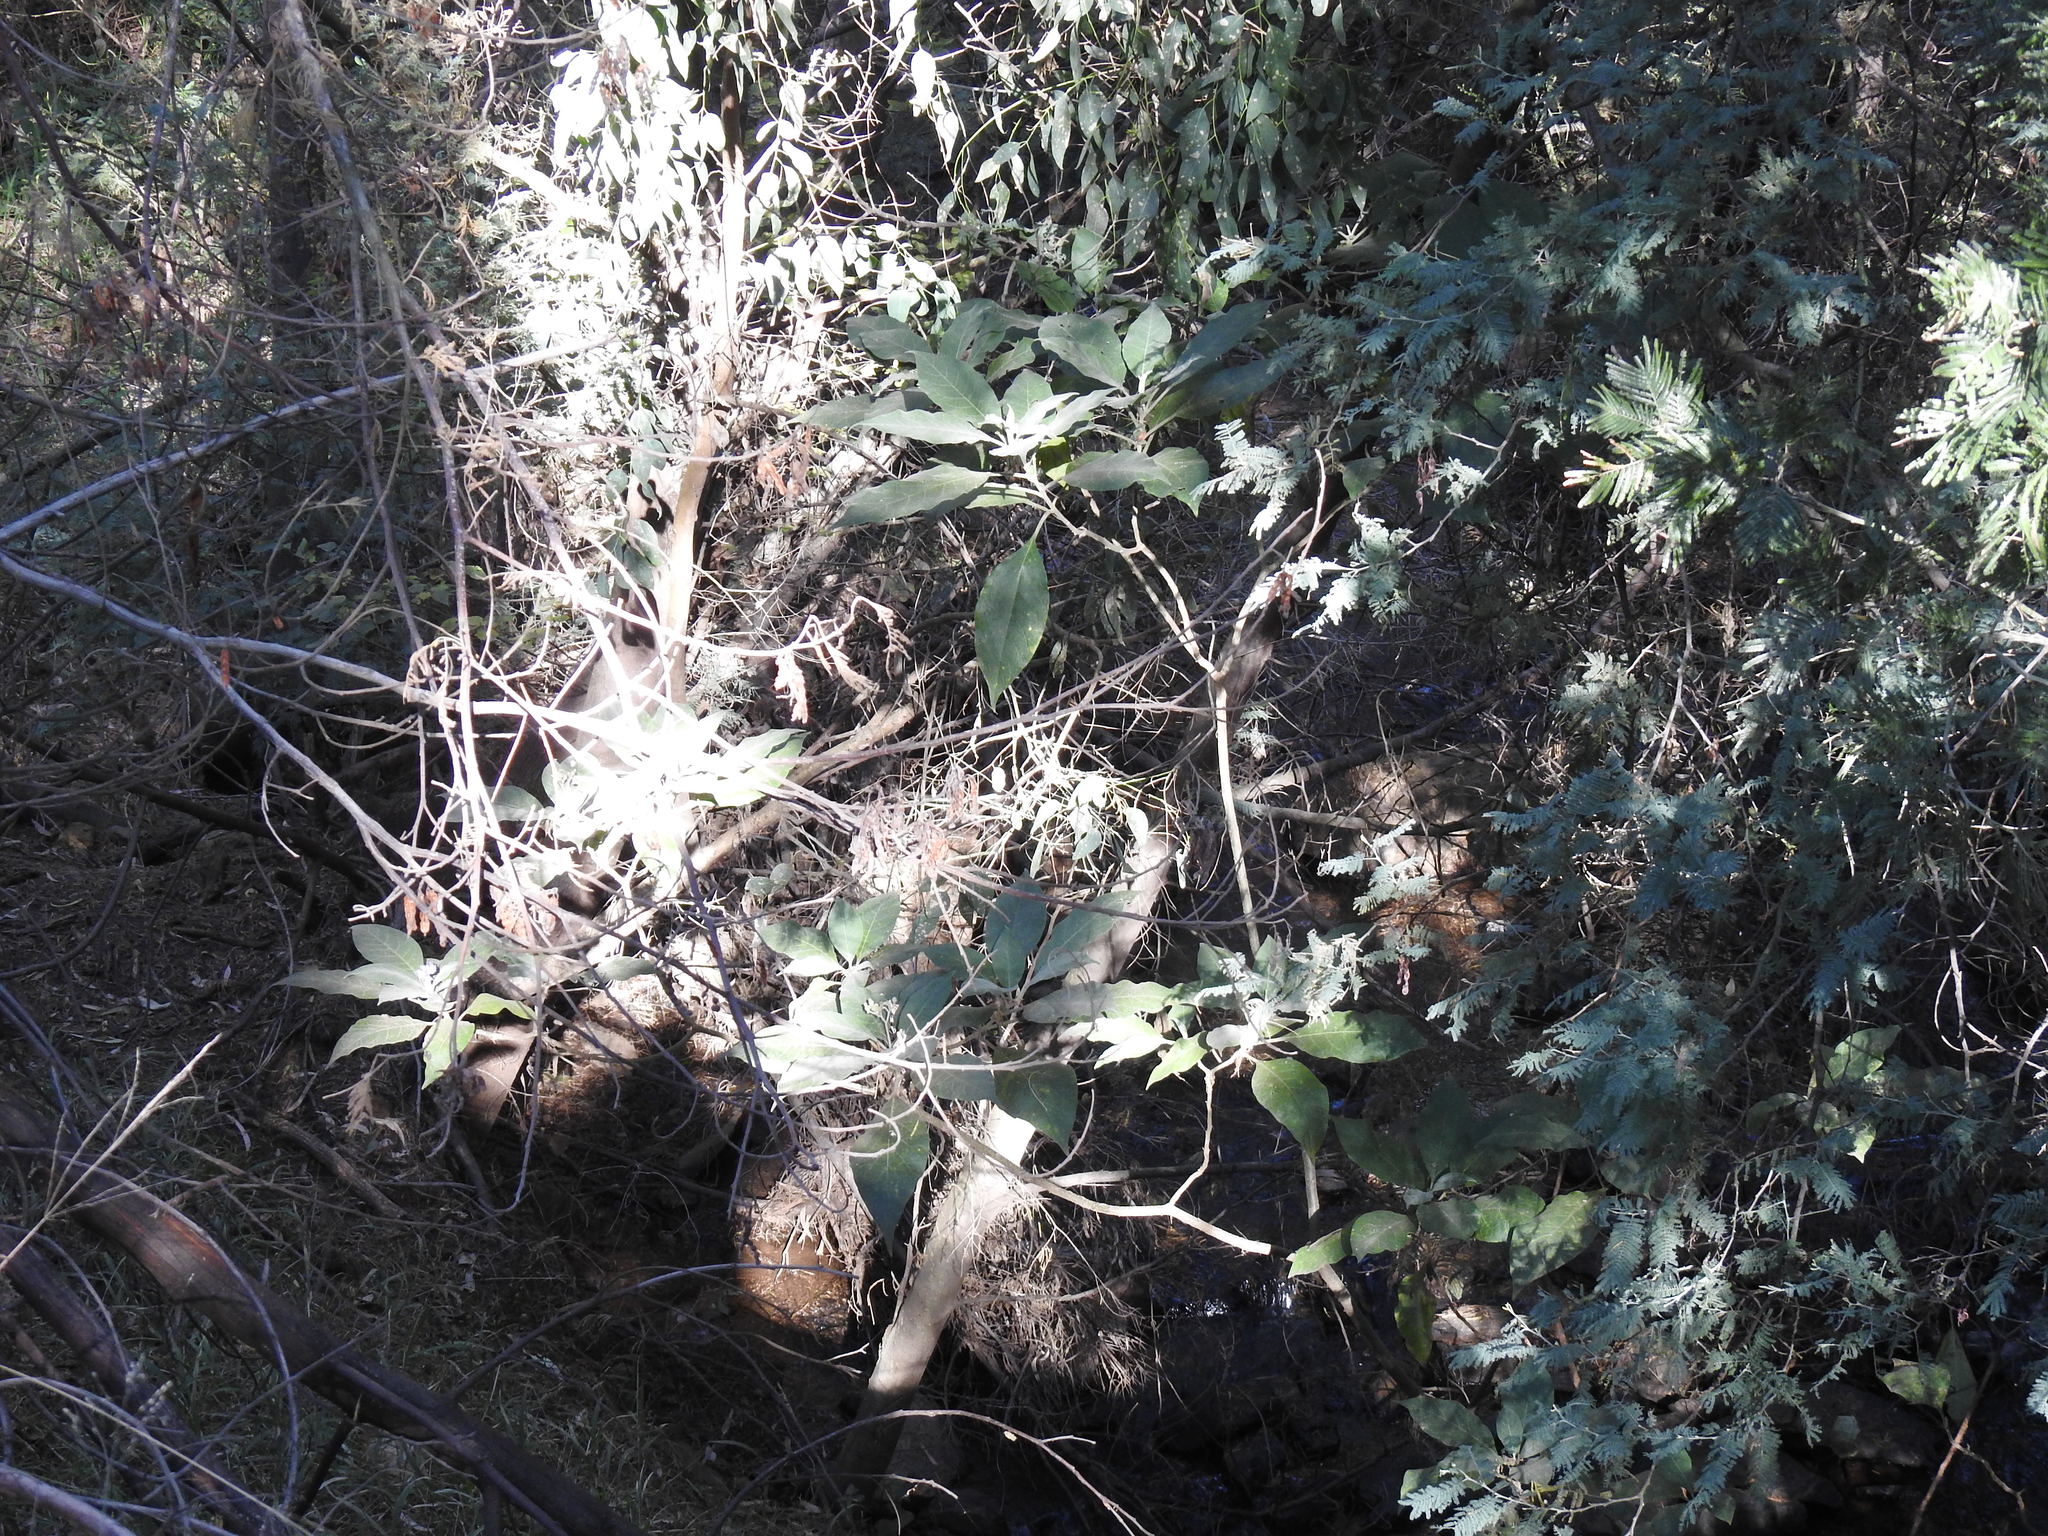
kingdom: Plantae
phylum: Tracheophyta
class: Magnoliopsida
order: Solanales
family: Solanaceae
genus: Solanum
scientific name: Solanum mauritianum
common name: Earleaf nightshade
